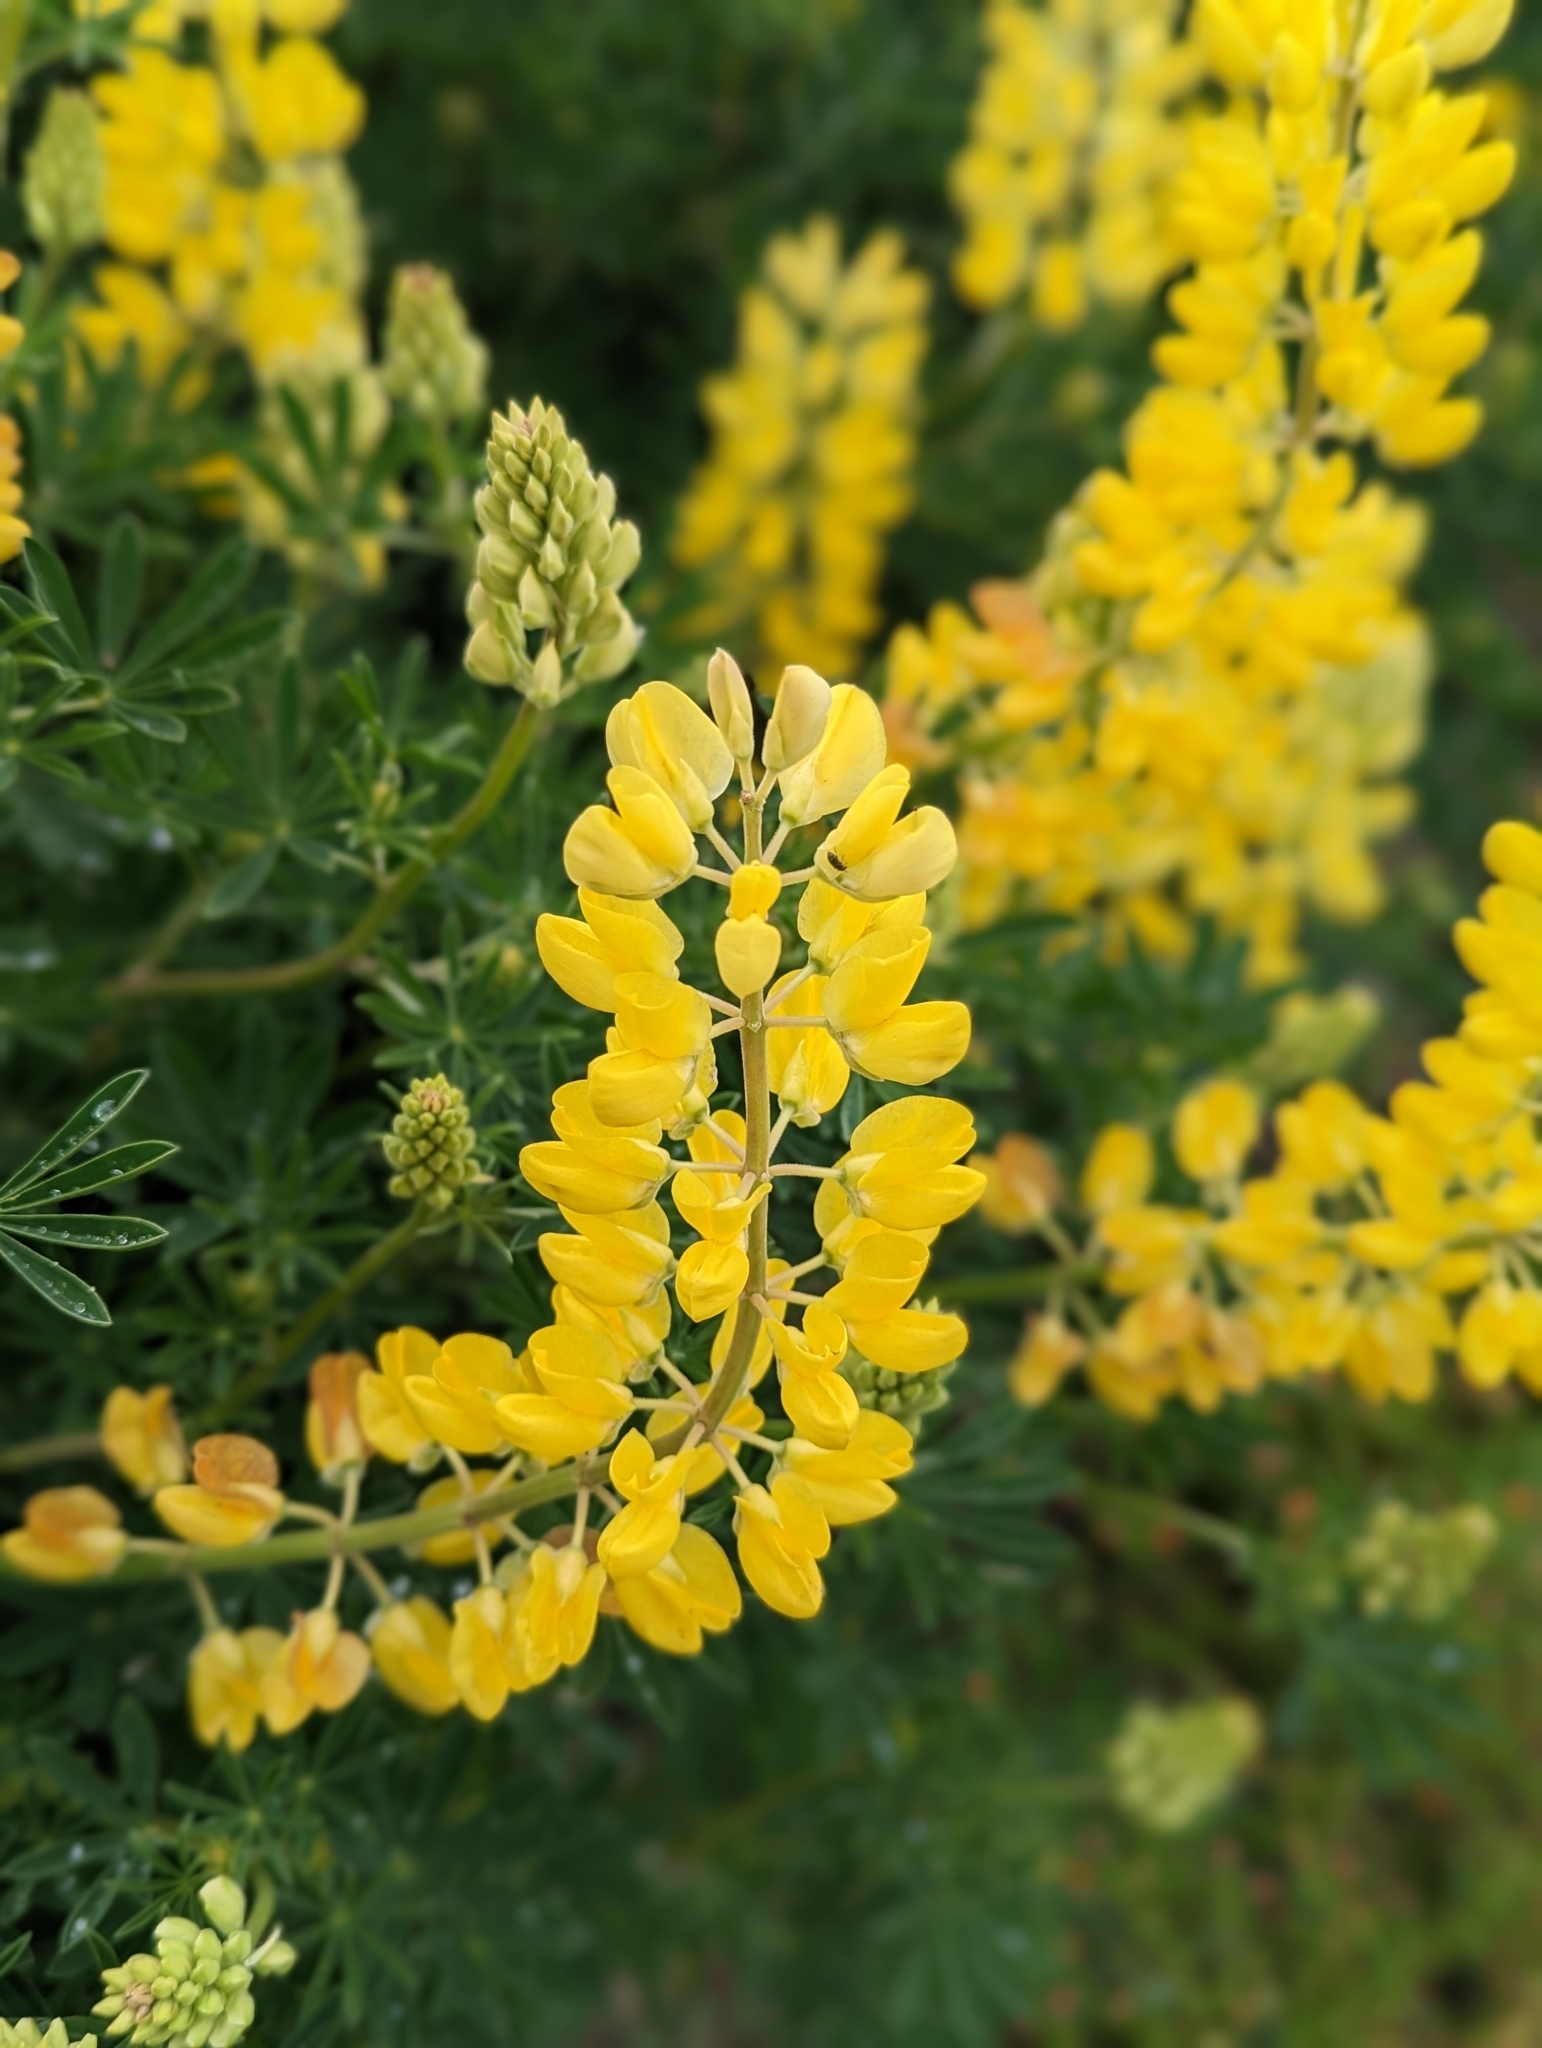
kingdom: Plantae
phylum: Tracheophyta
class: Magnoliopsida
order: Fabales
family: Fabaceae
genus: Lupinus
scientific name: Lupinus arboreus
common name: Yellow bush lupine
